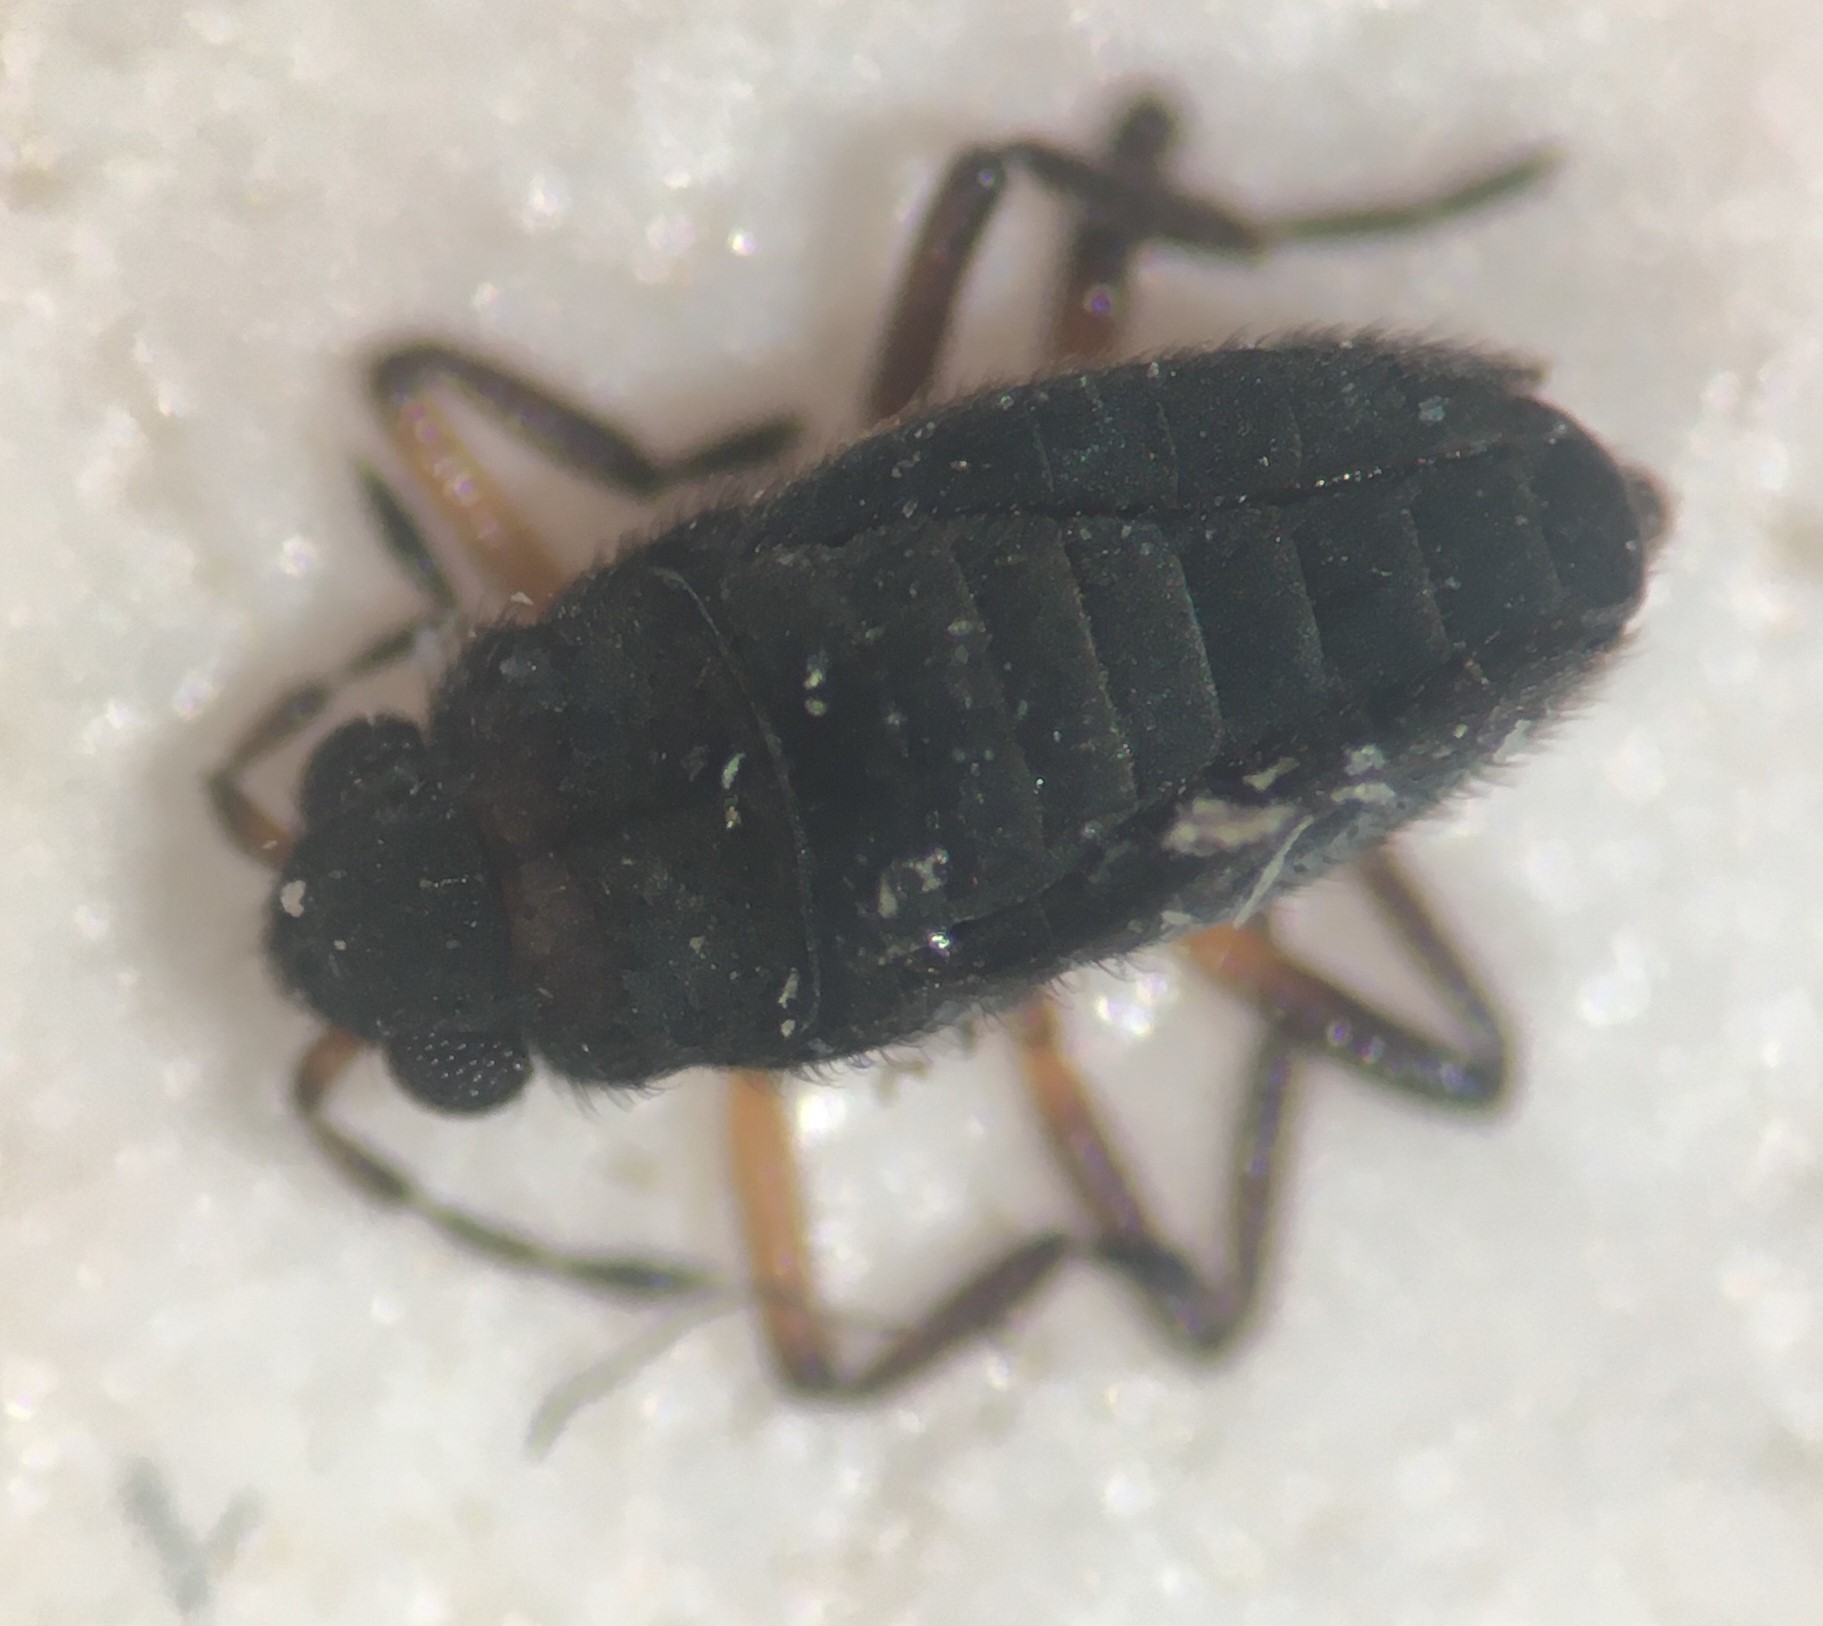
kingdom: Animalia
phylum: Arthropoda
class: Insecta
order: Hemiptera
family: Veliidae
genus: Microvelia
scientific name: Microvelia austrina
